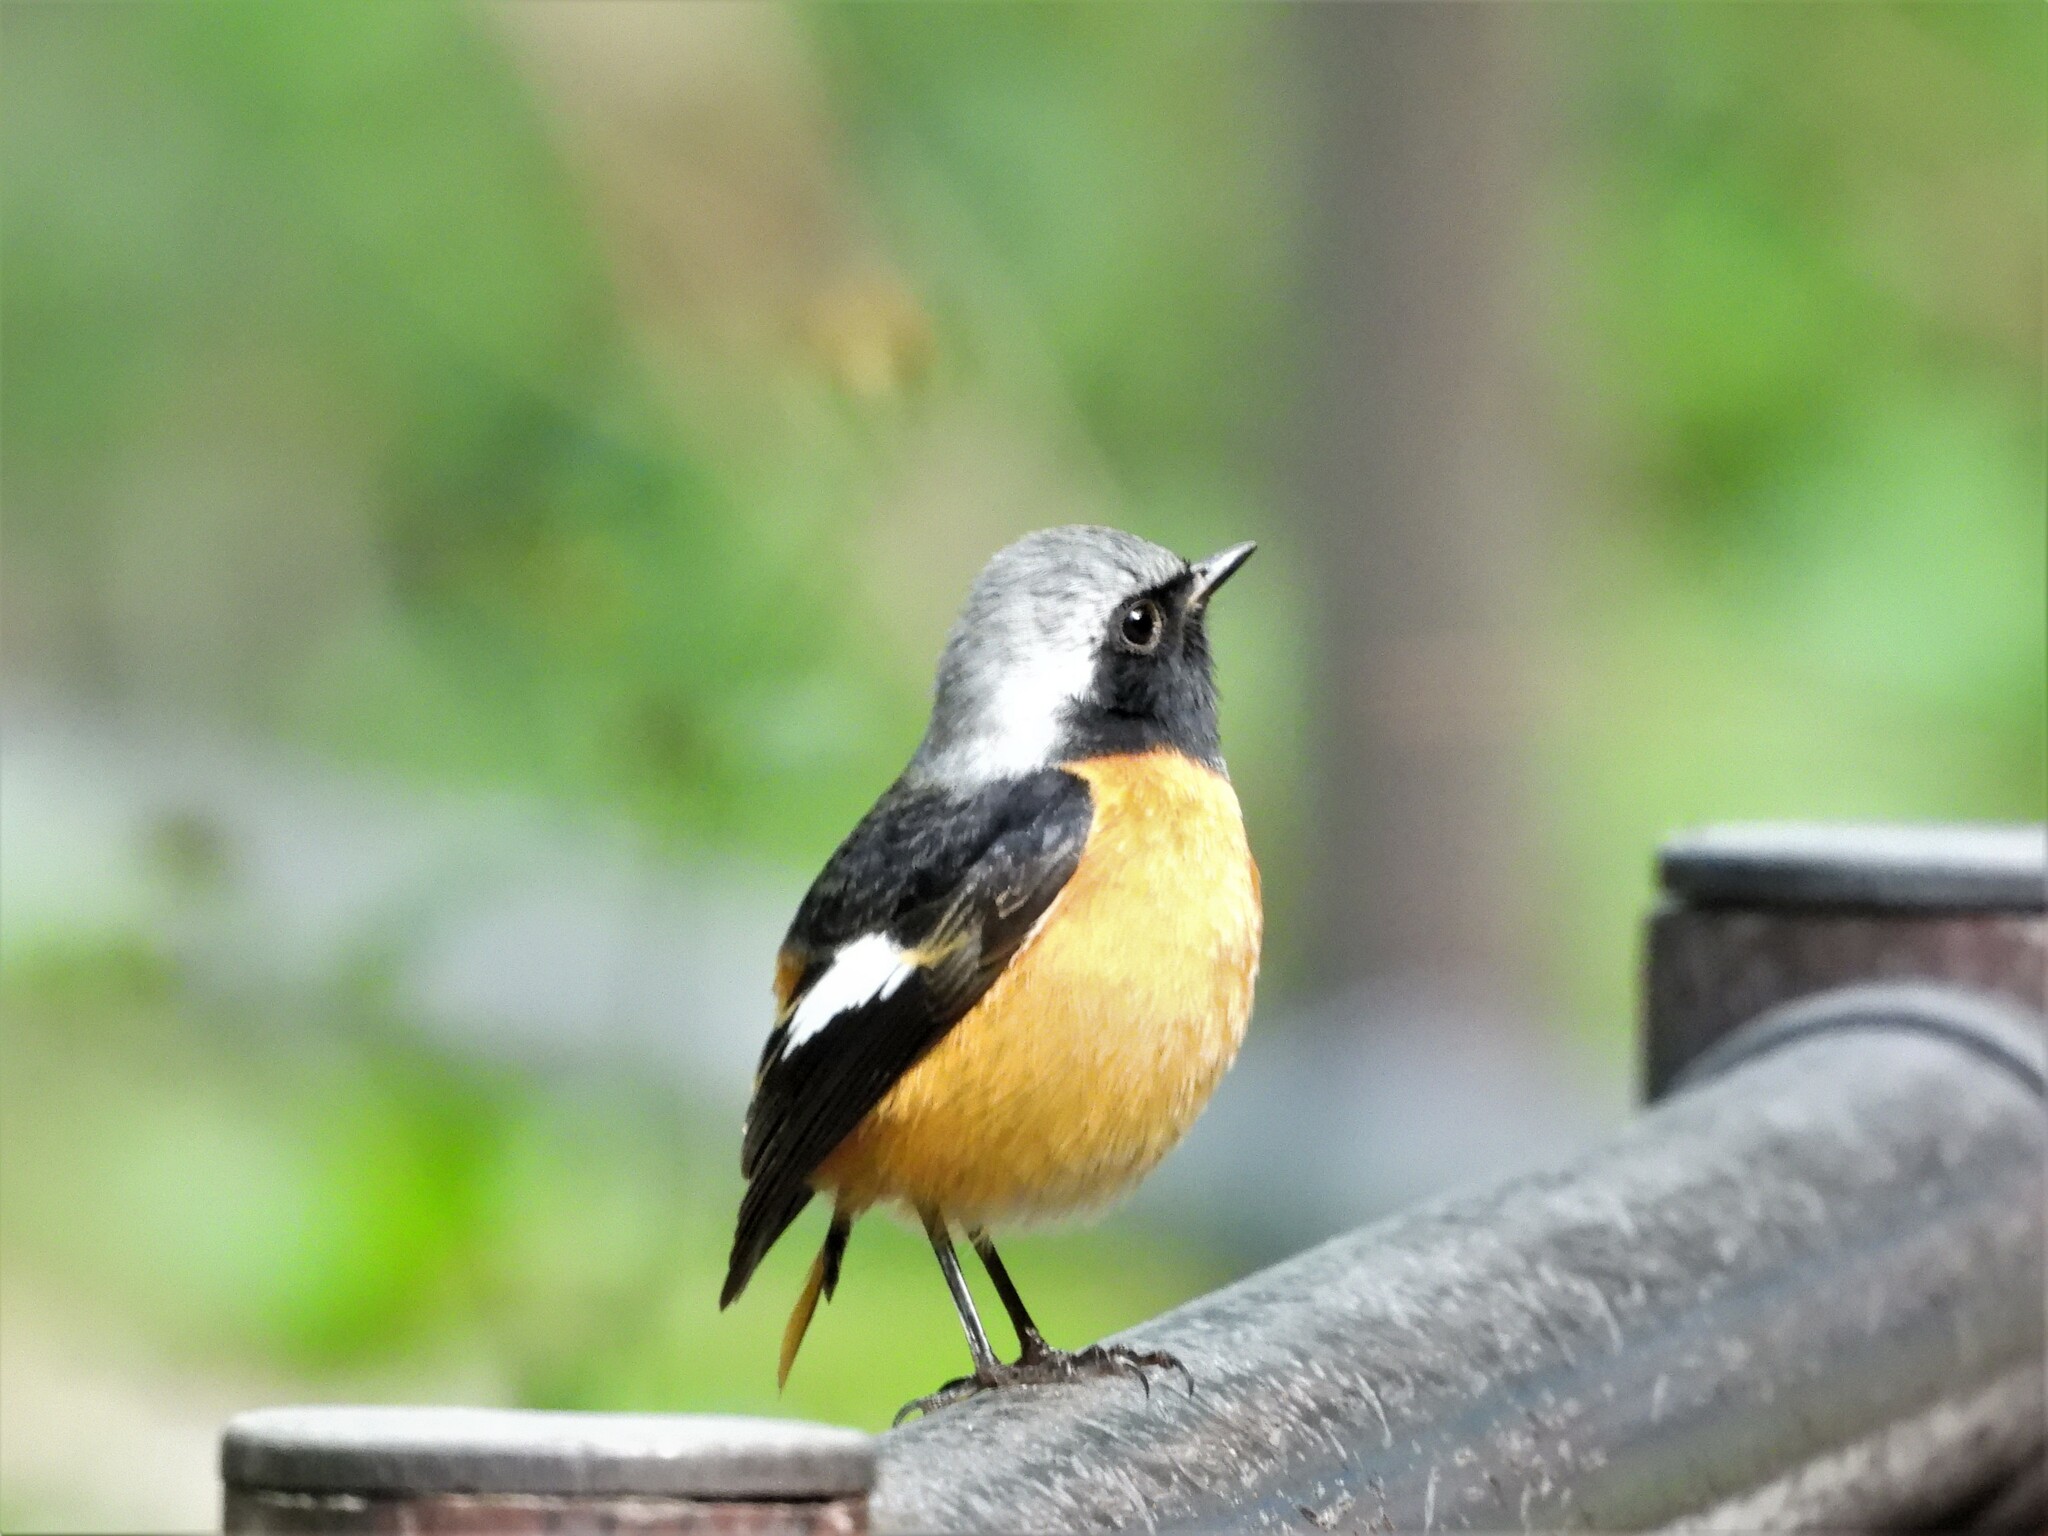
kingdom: Animalia
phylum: Chordata
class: Aves
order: Passeriformes
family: Muscicapidae
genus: Phoenicurus
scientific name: Phoenicurus auroreus
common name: Daurian redstart
